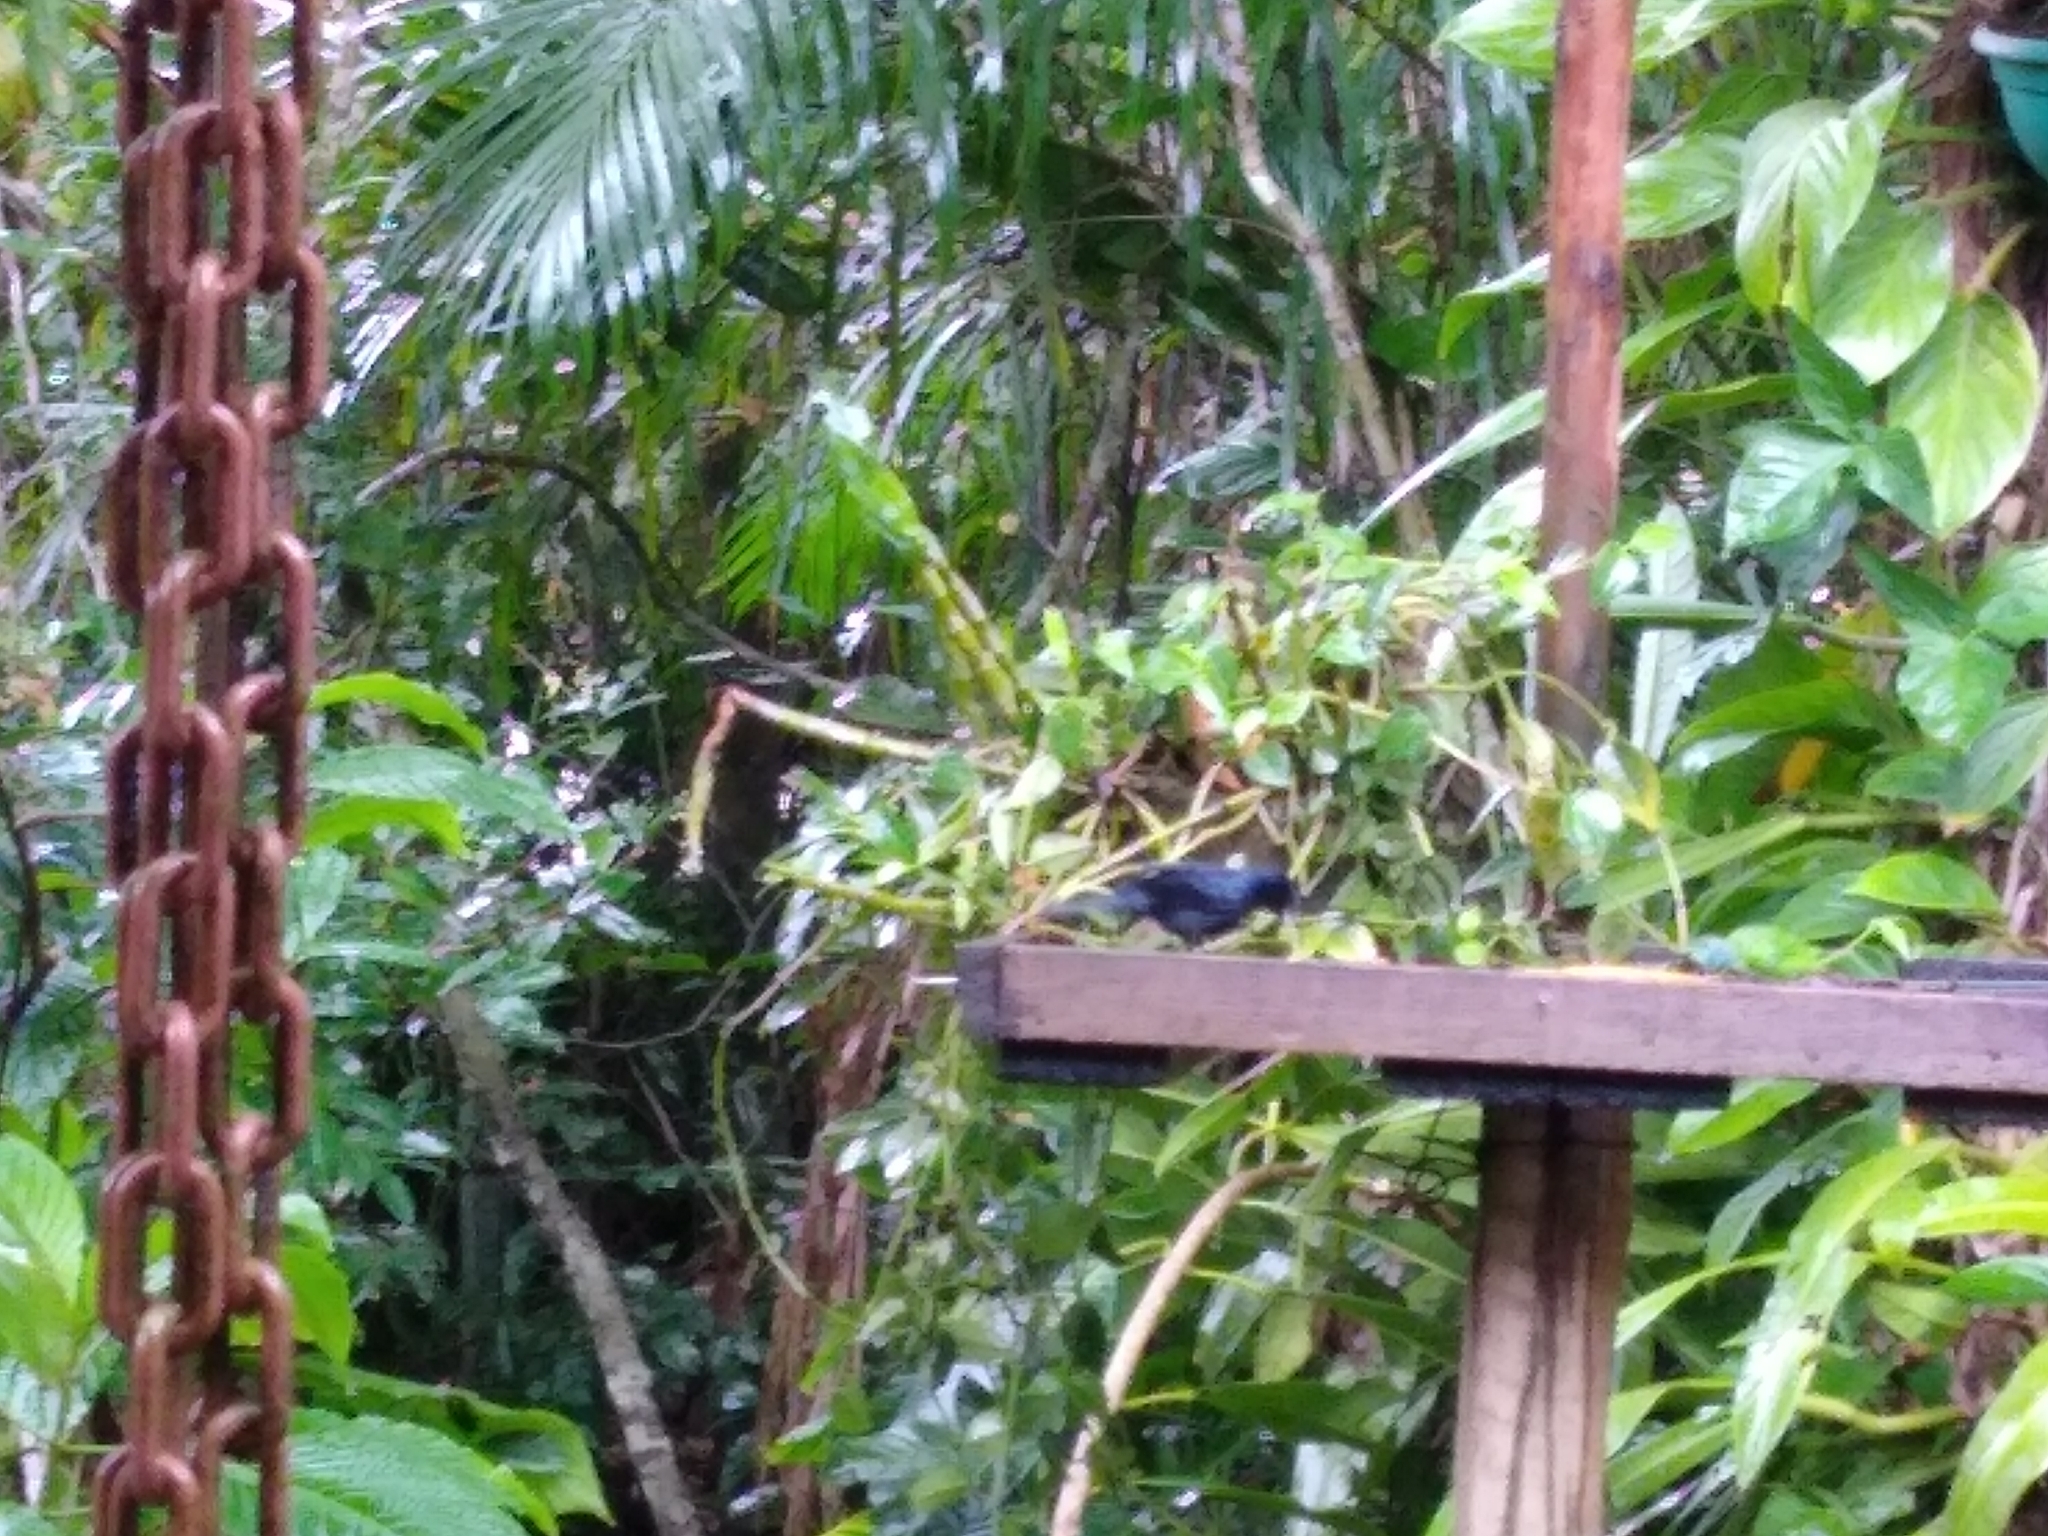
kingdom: Animalia
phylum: Chordata
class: Aves
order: Passeriformes
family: Thraupidae
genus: Tachyphonus
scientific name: Tachyphonus coronatus
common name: Ruby-crowned tanager
